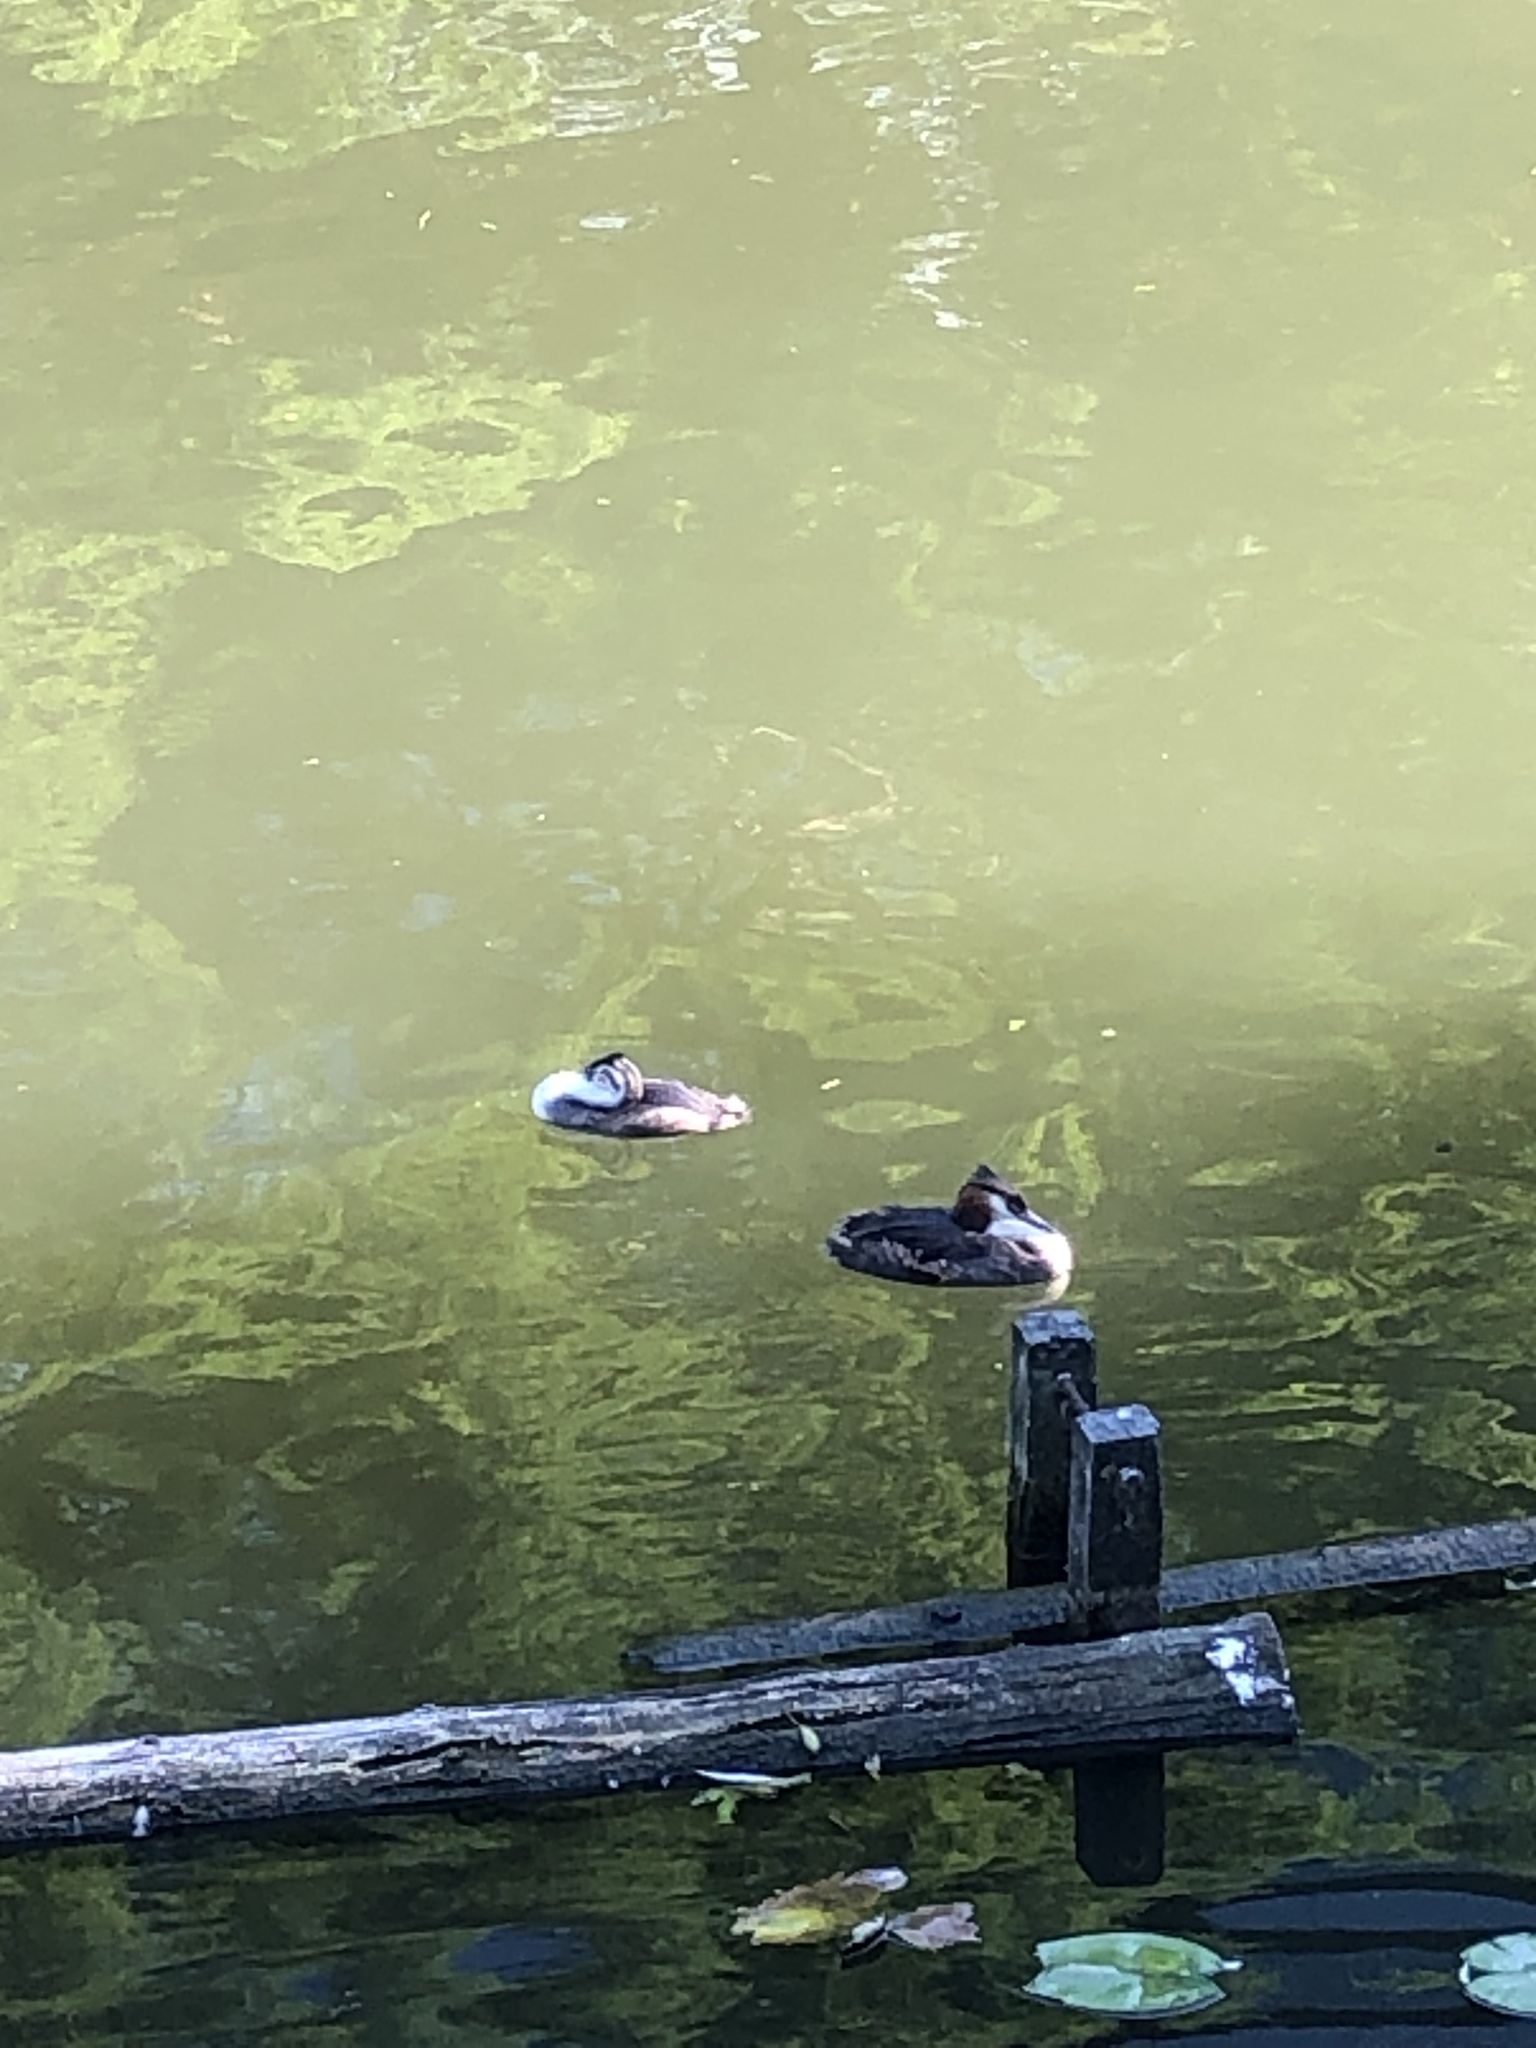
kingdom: Animalia
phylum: Chordata
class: Aves
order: Podicipediformes
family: Podicipedidae
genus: Podiceps
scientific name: Podiceps cristatus
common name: Great crested grebe
